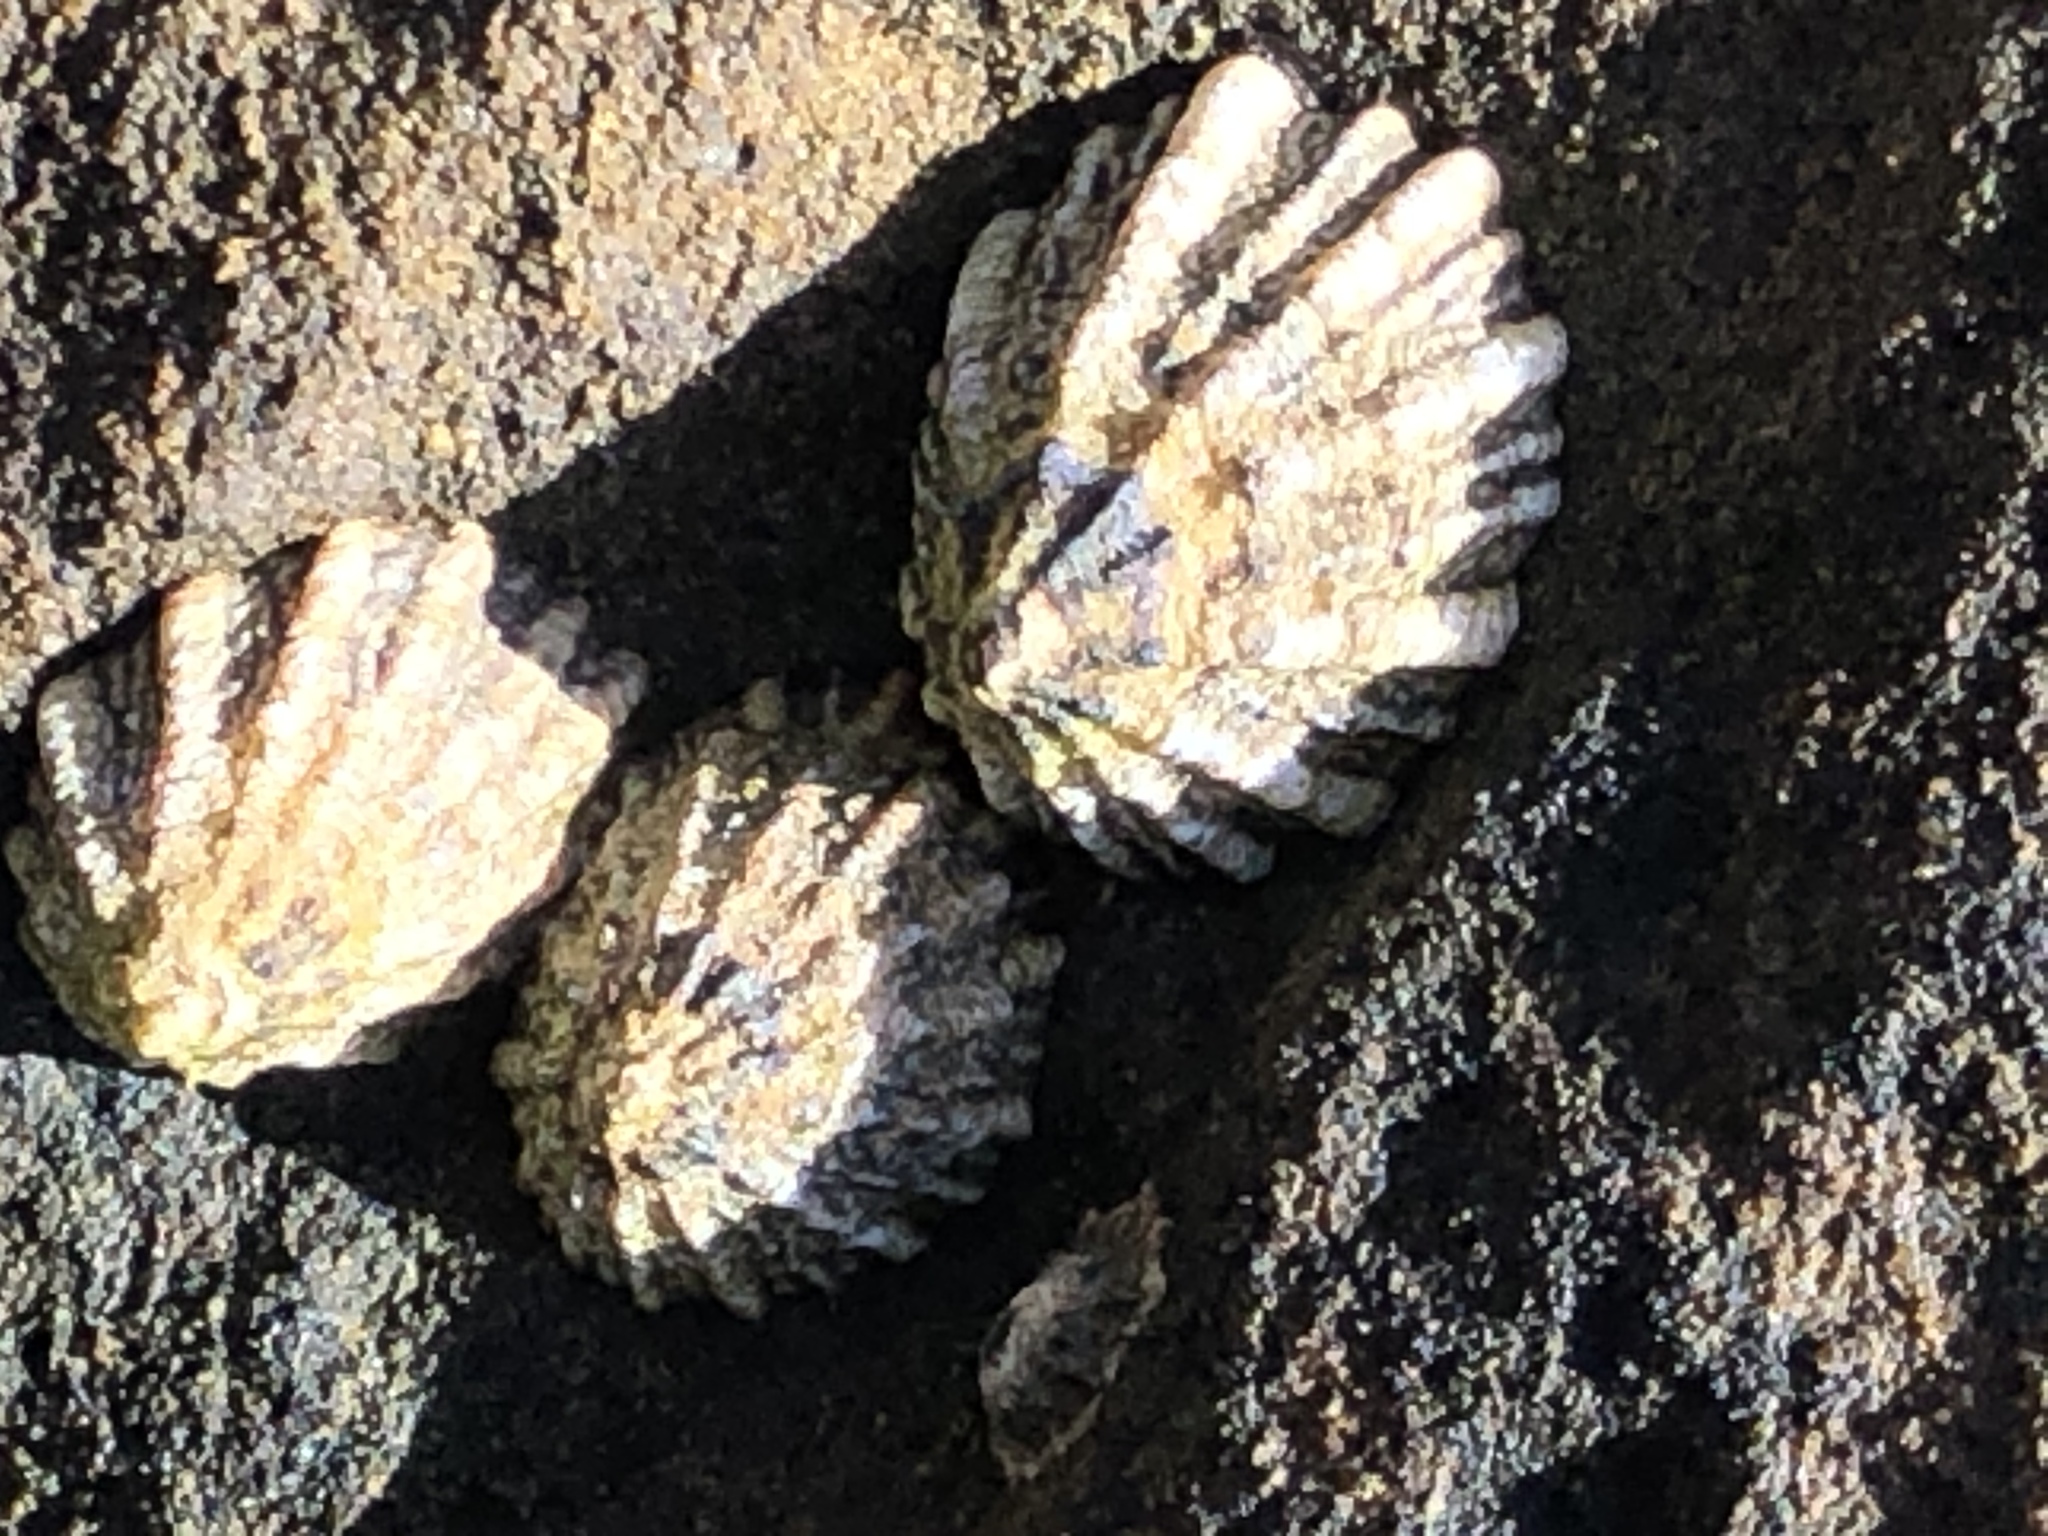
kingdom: Animalia
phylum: Mollusca
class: Gastropoda
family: Lottiidae
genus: Lottia
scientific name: Lottia scabra
